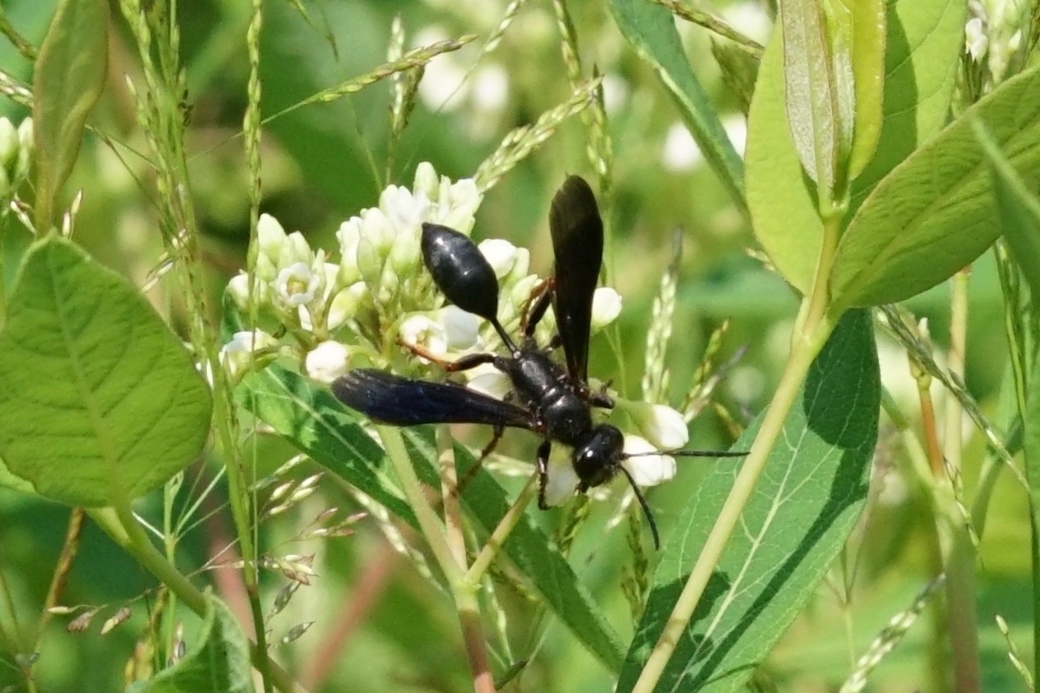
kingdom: Animalia
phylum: Arthropoda
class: Insecta
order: Hymenoptera
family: Sphecidae
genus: Isodontia
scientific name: Isodontia auripes
